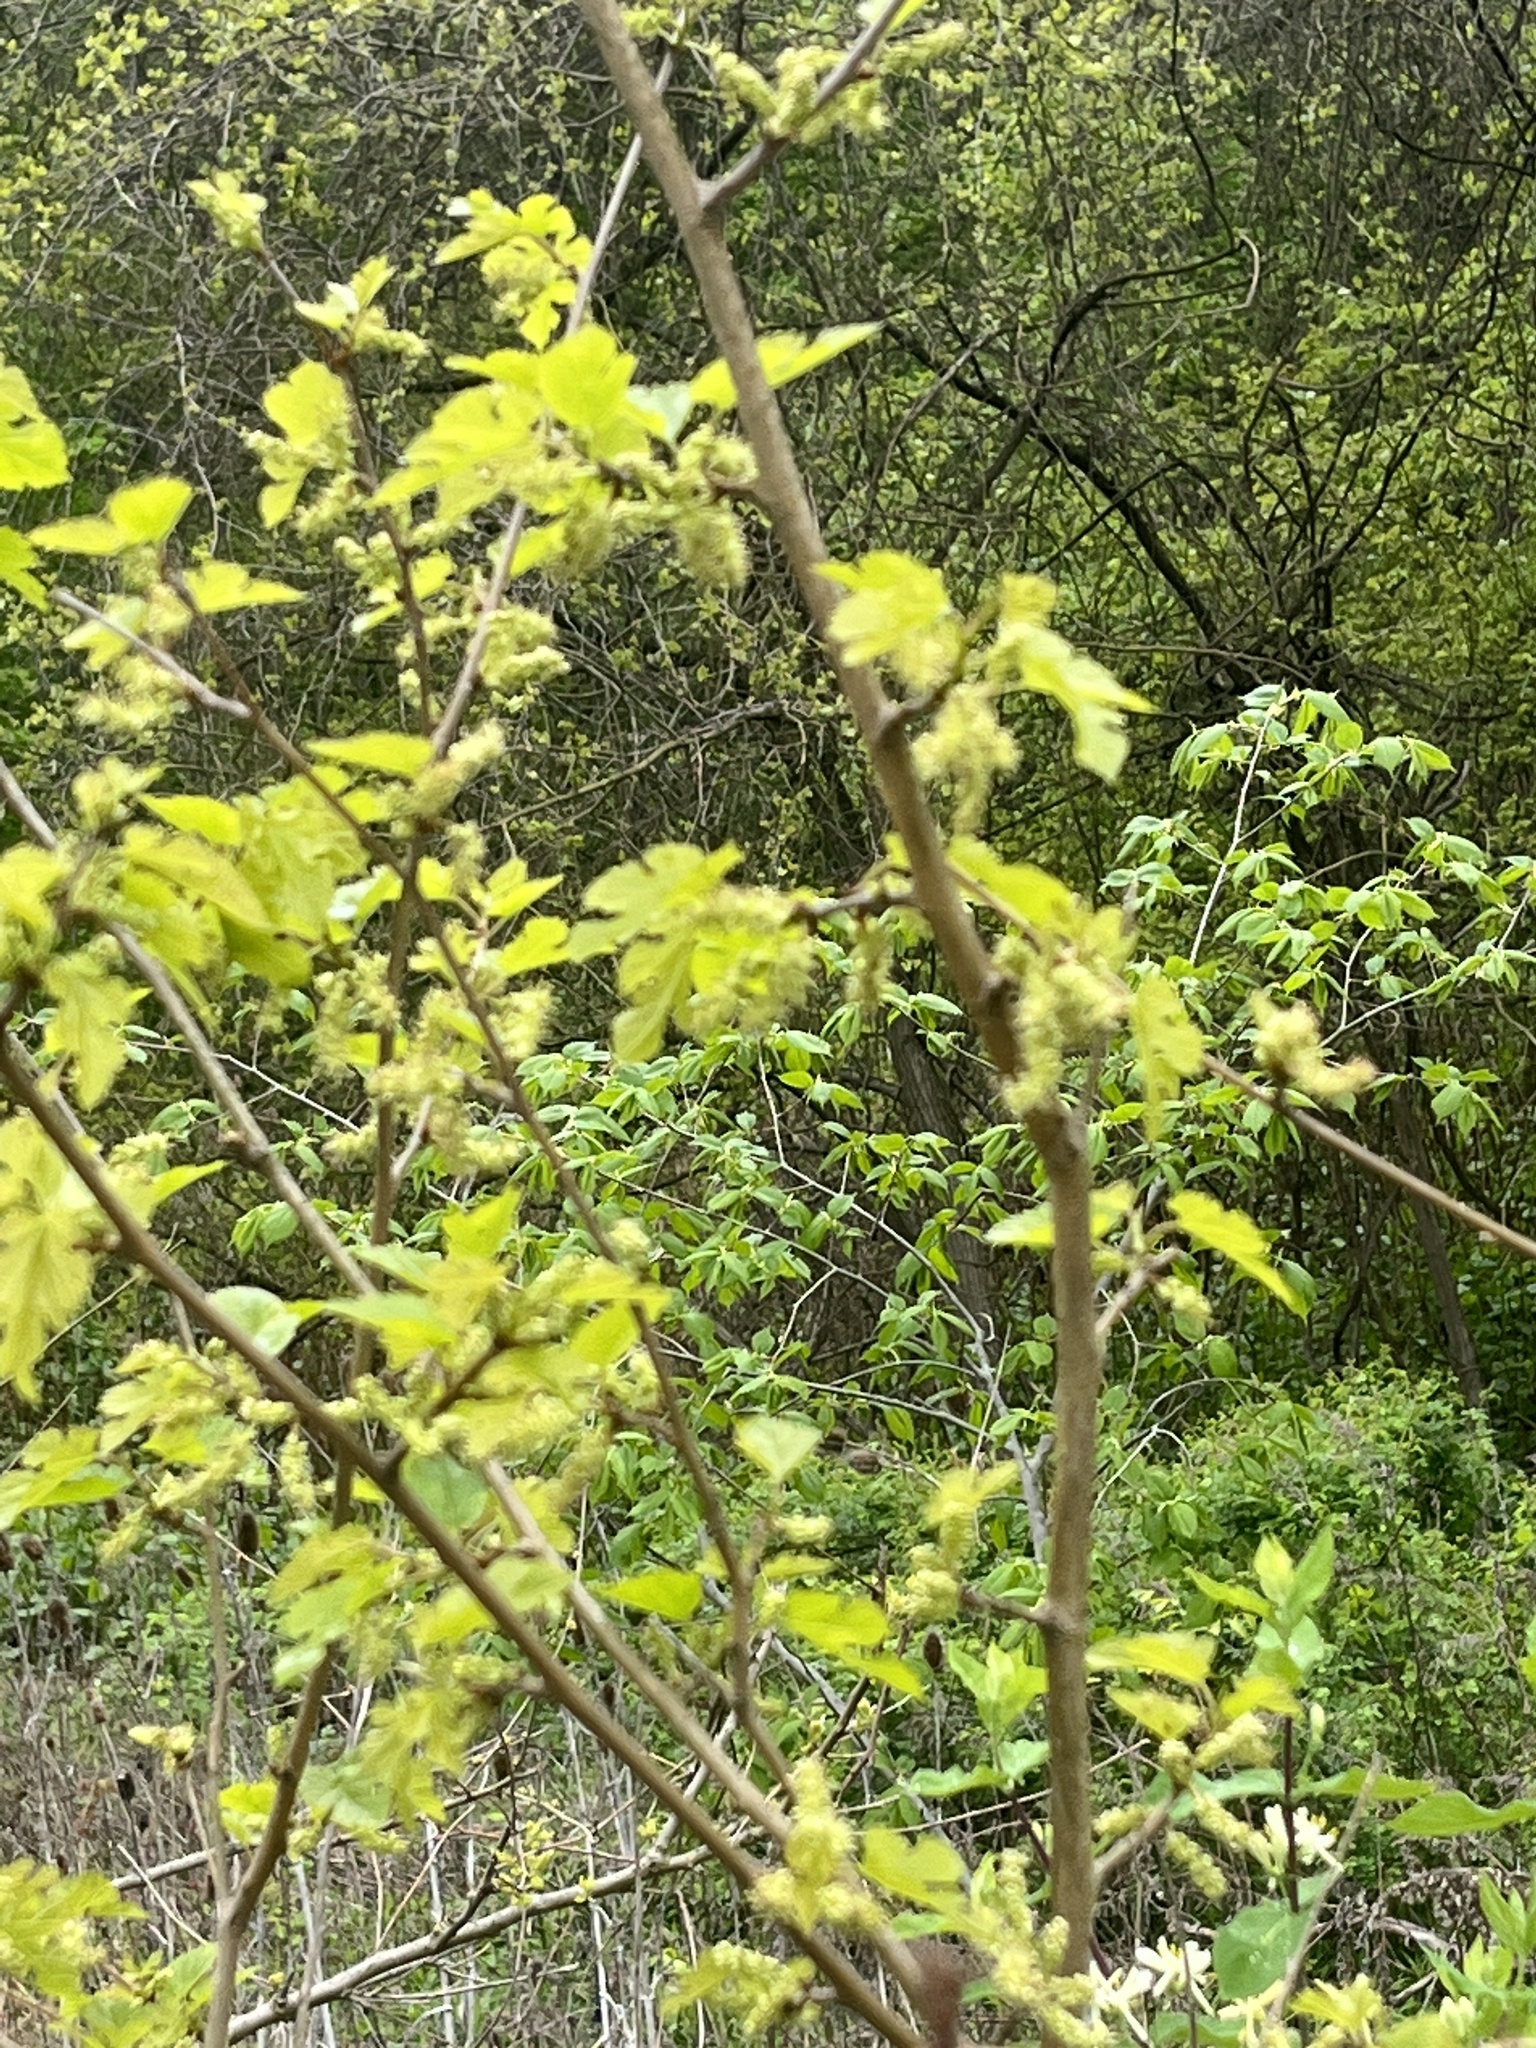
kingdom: Plantae
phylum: Tracheophyta
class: Magnoliopsida
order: Rosales
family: Moraceae
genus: Morus
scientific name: Morus alba
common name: White mulberry
